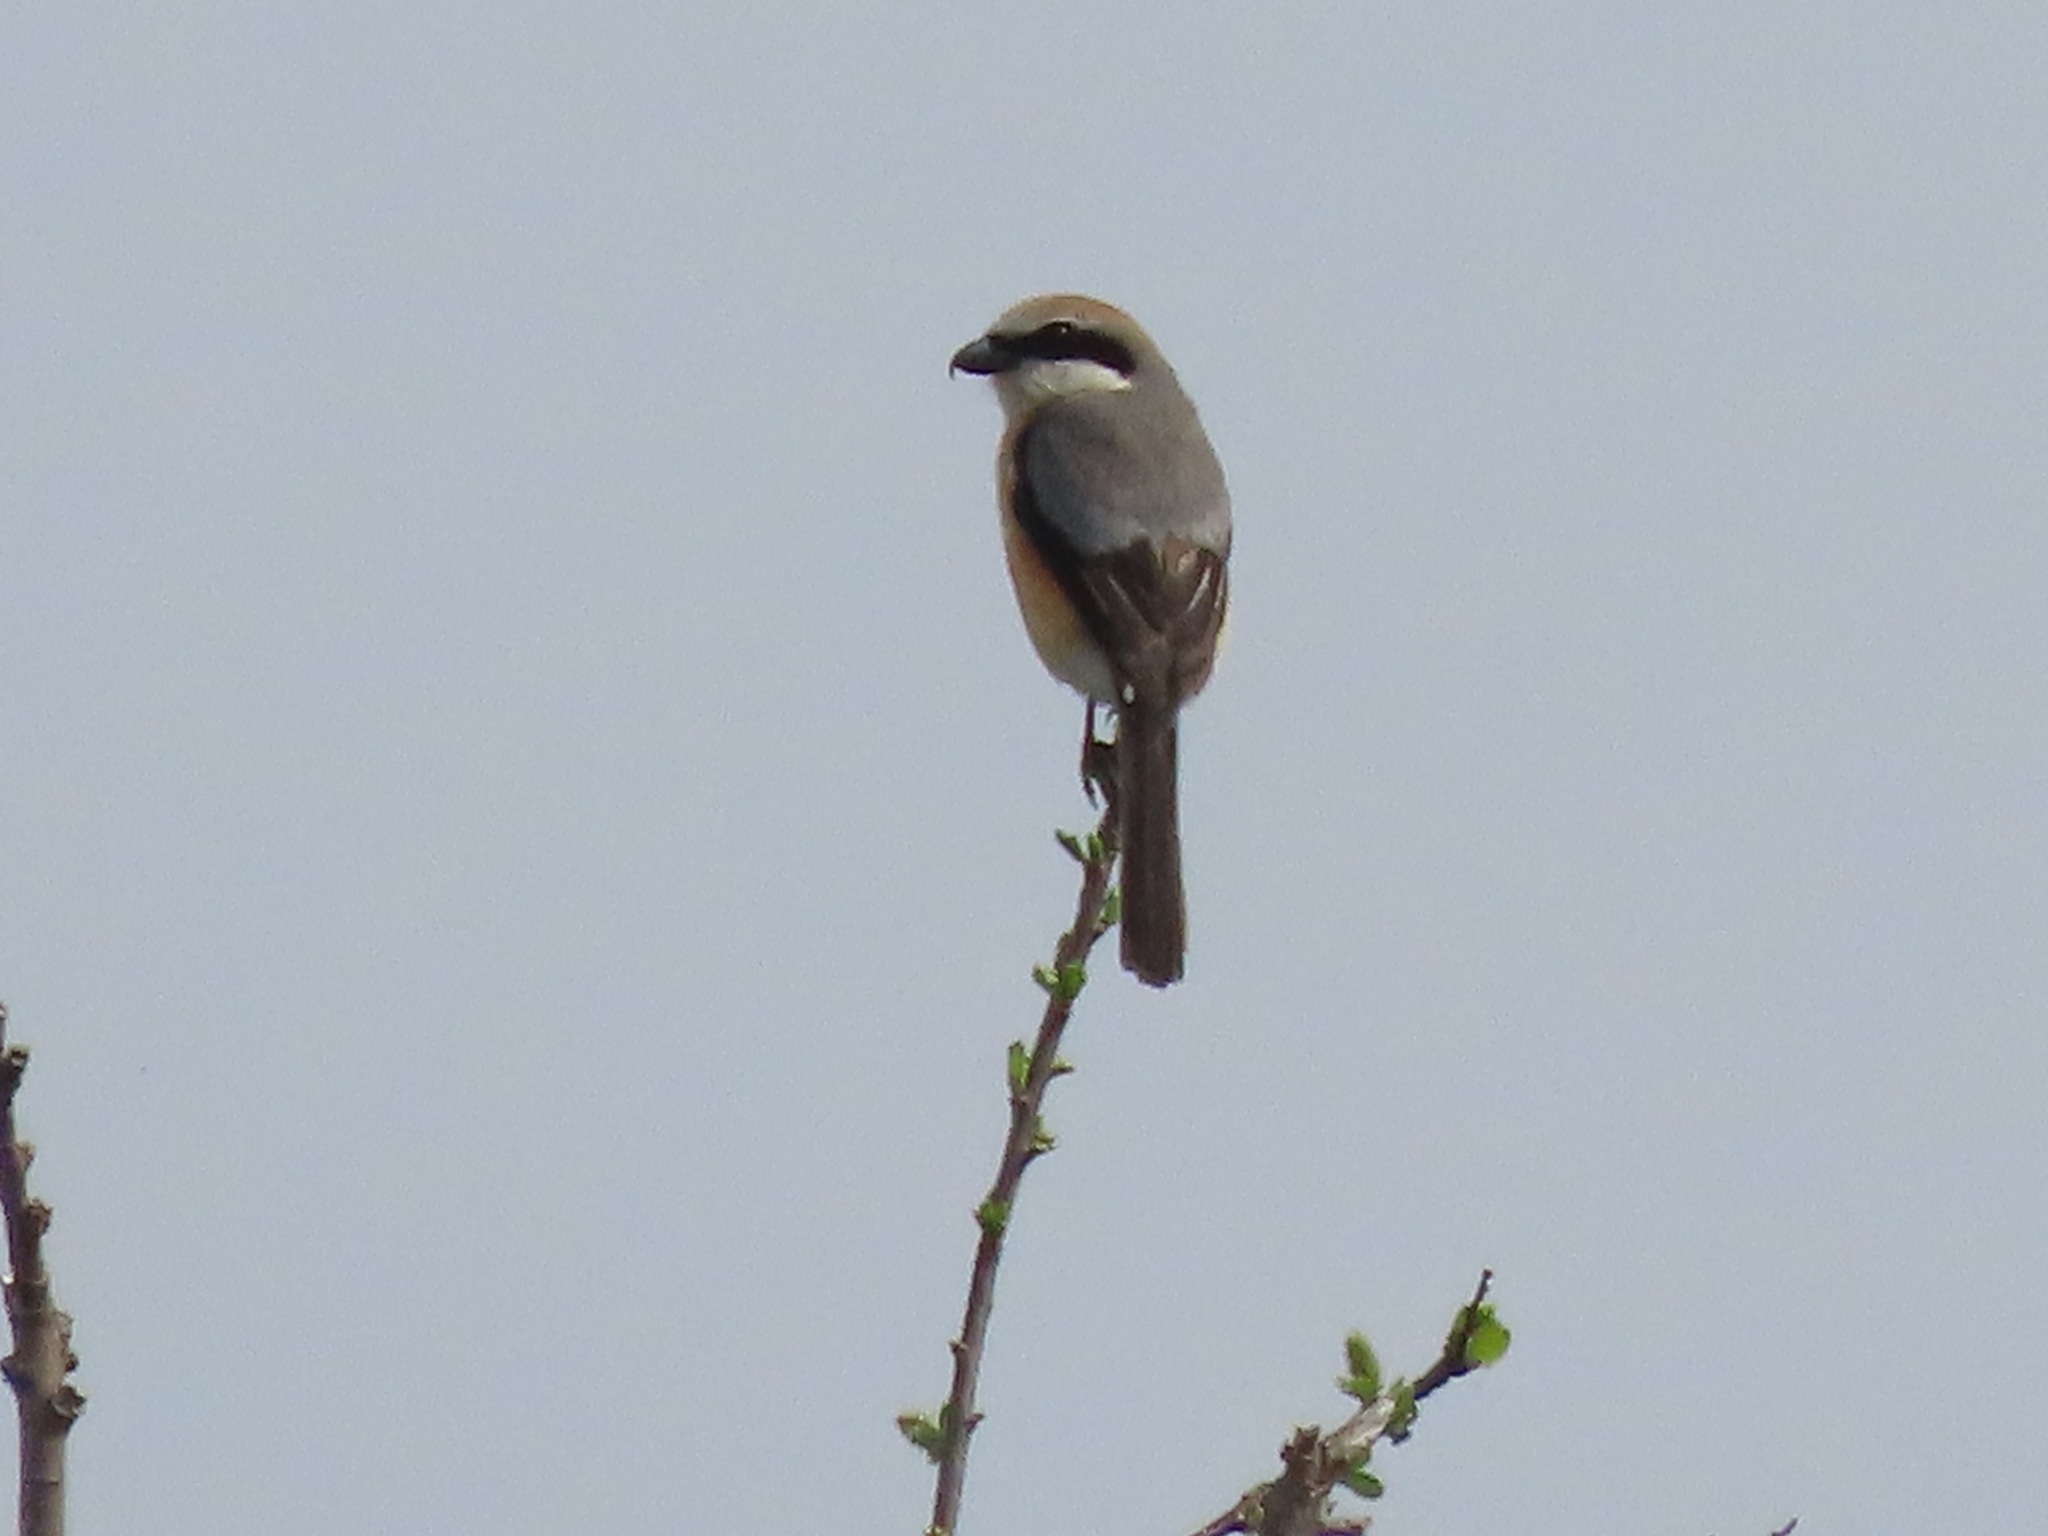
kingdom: Animalia
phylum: Chordata
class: Aves
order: Passeriformes
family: Laniidae
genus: Lanius
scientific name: Lanius bucephalus
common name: Bull-headed shrike
